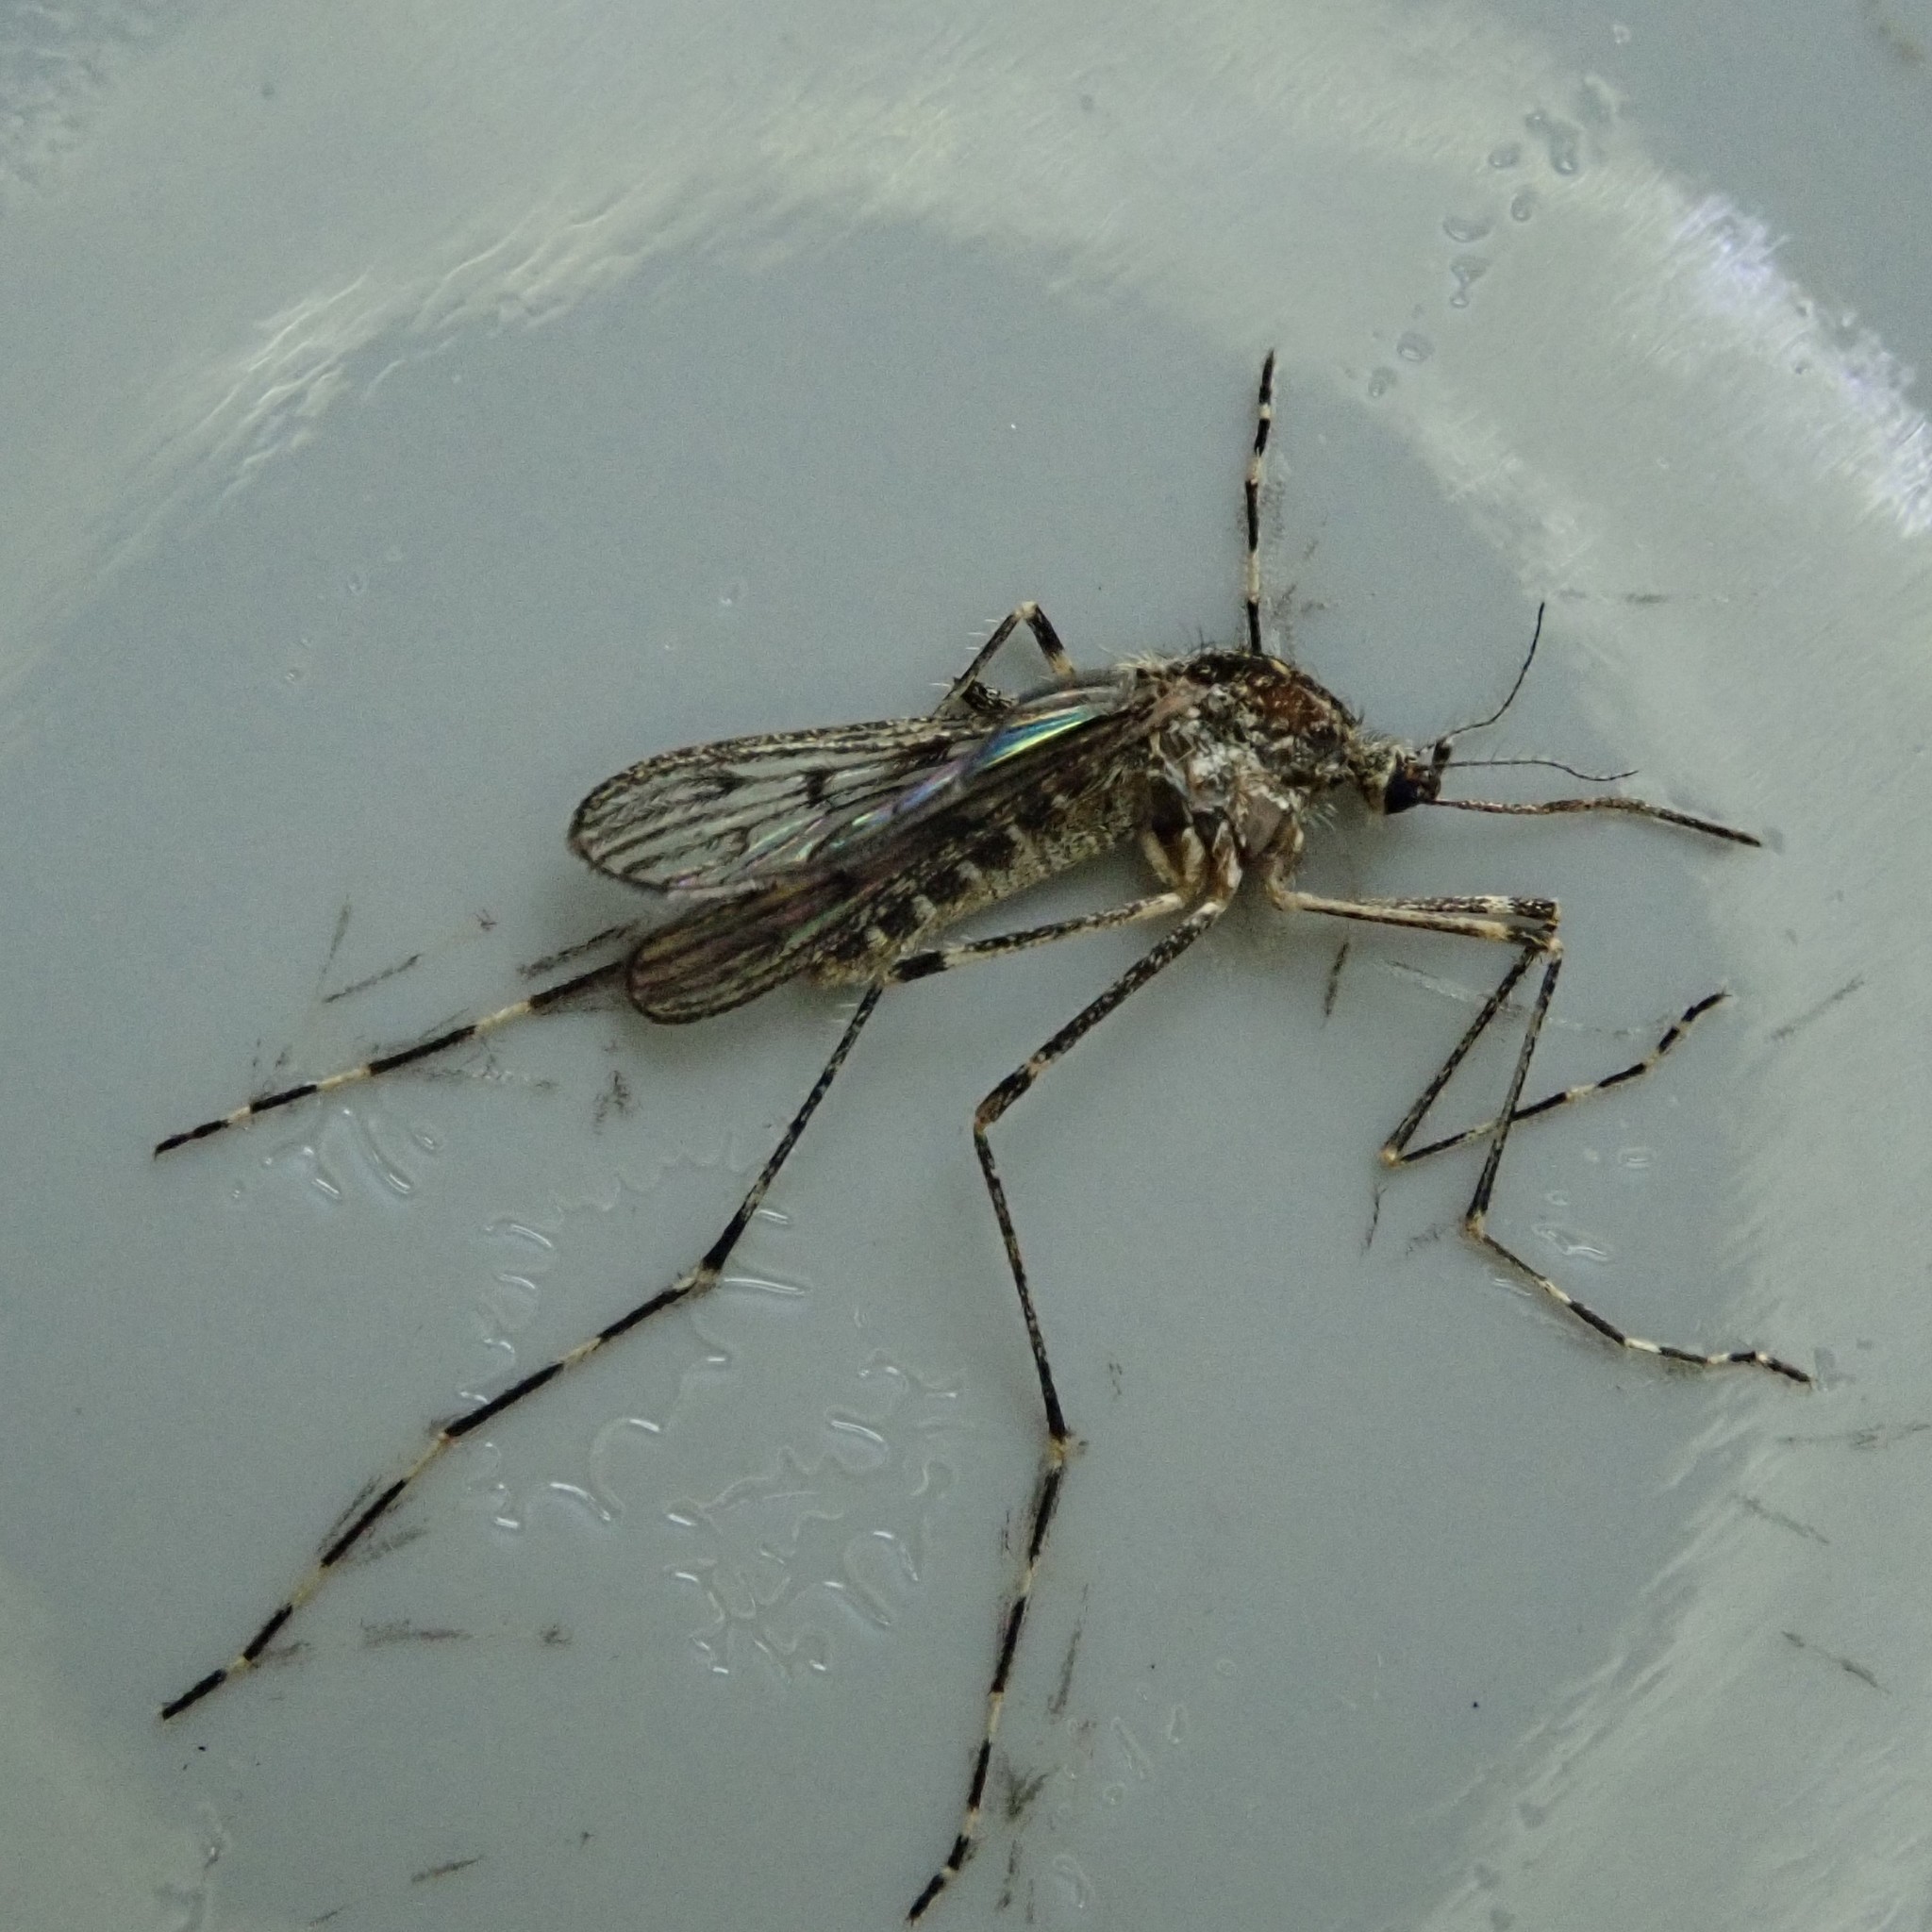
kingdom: Animalia
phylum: Arthropoda
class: Insecta
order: Diptera
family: Culicidae
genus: Culiseta
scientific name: Culiseta annulata
